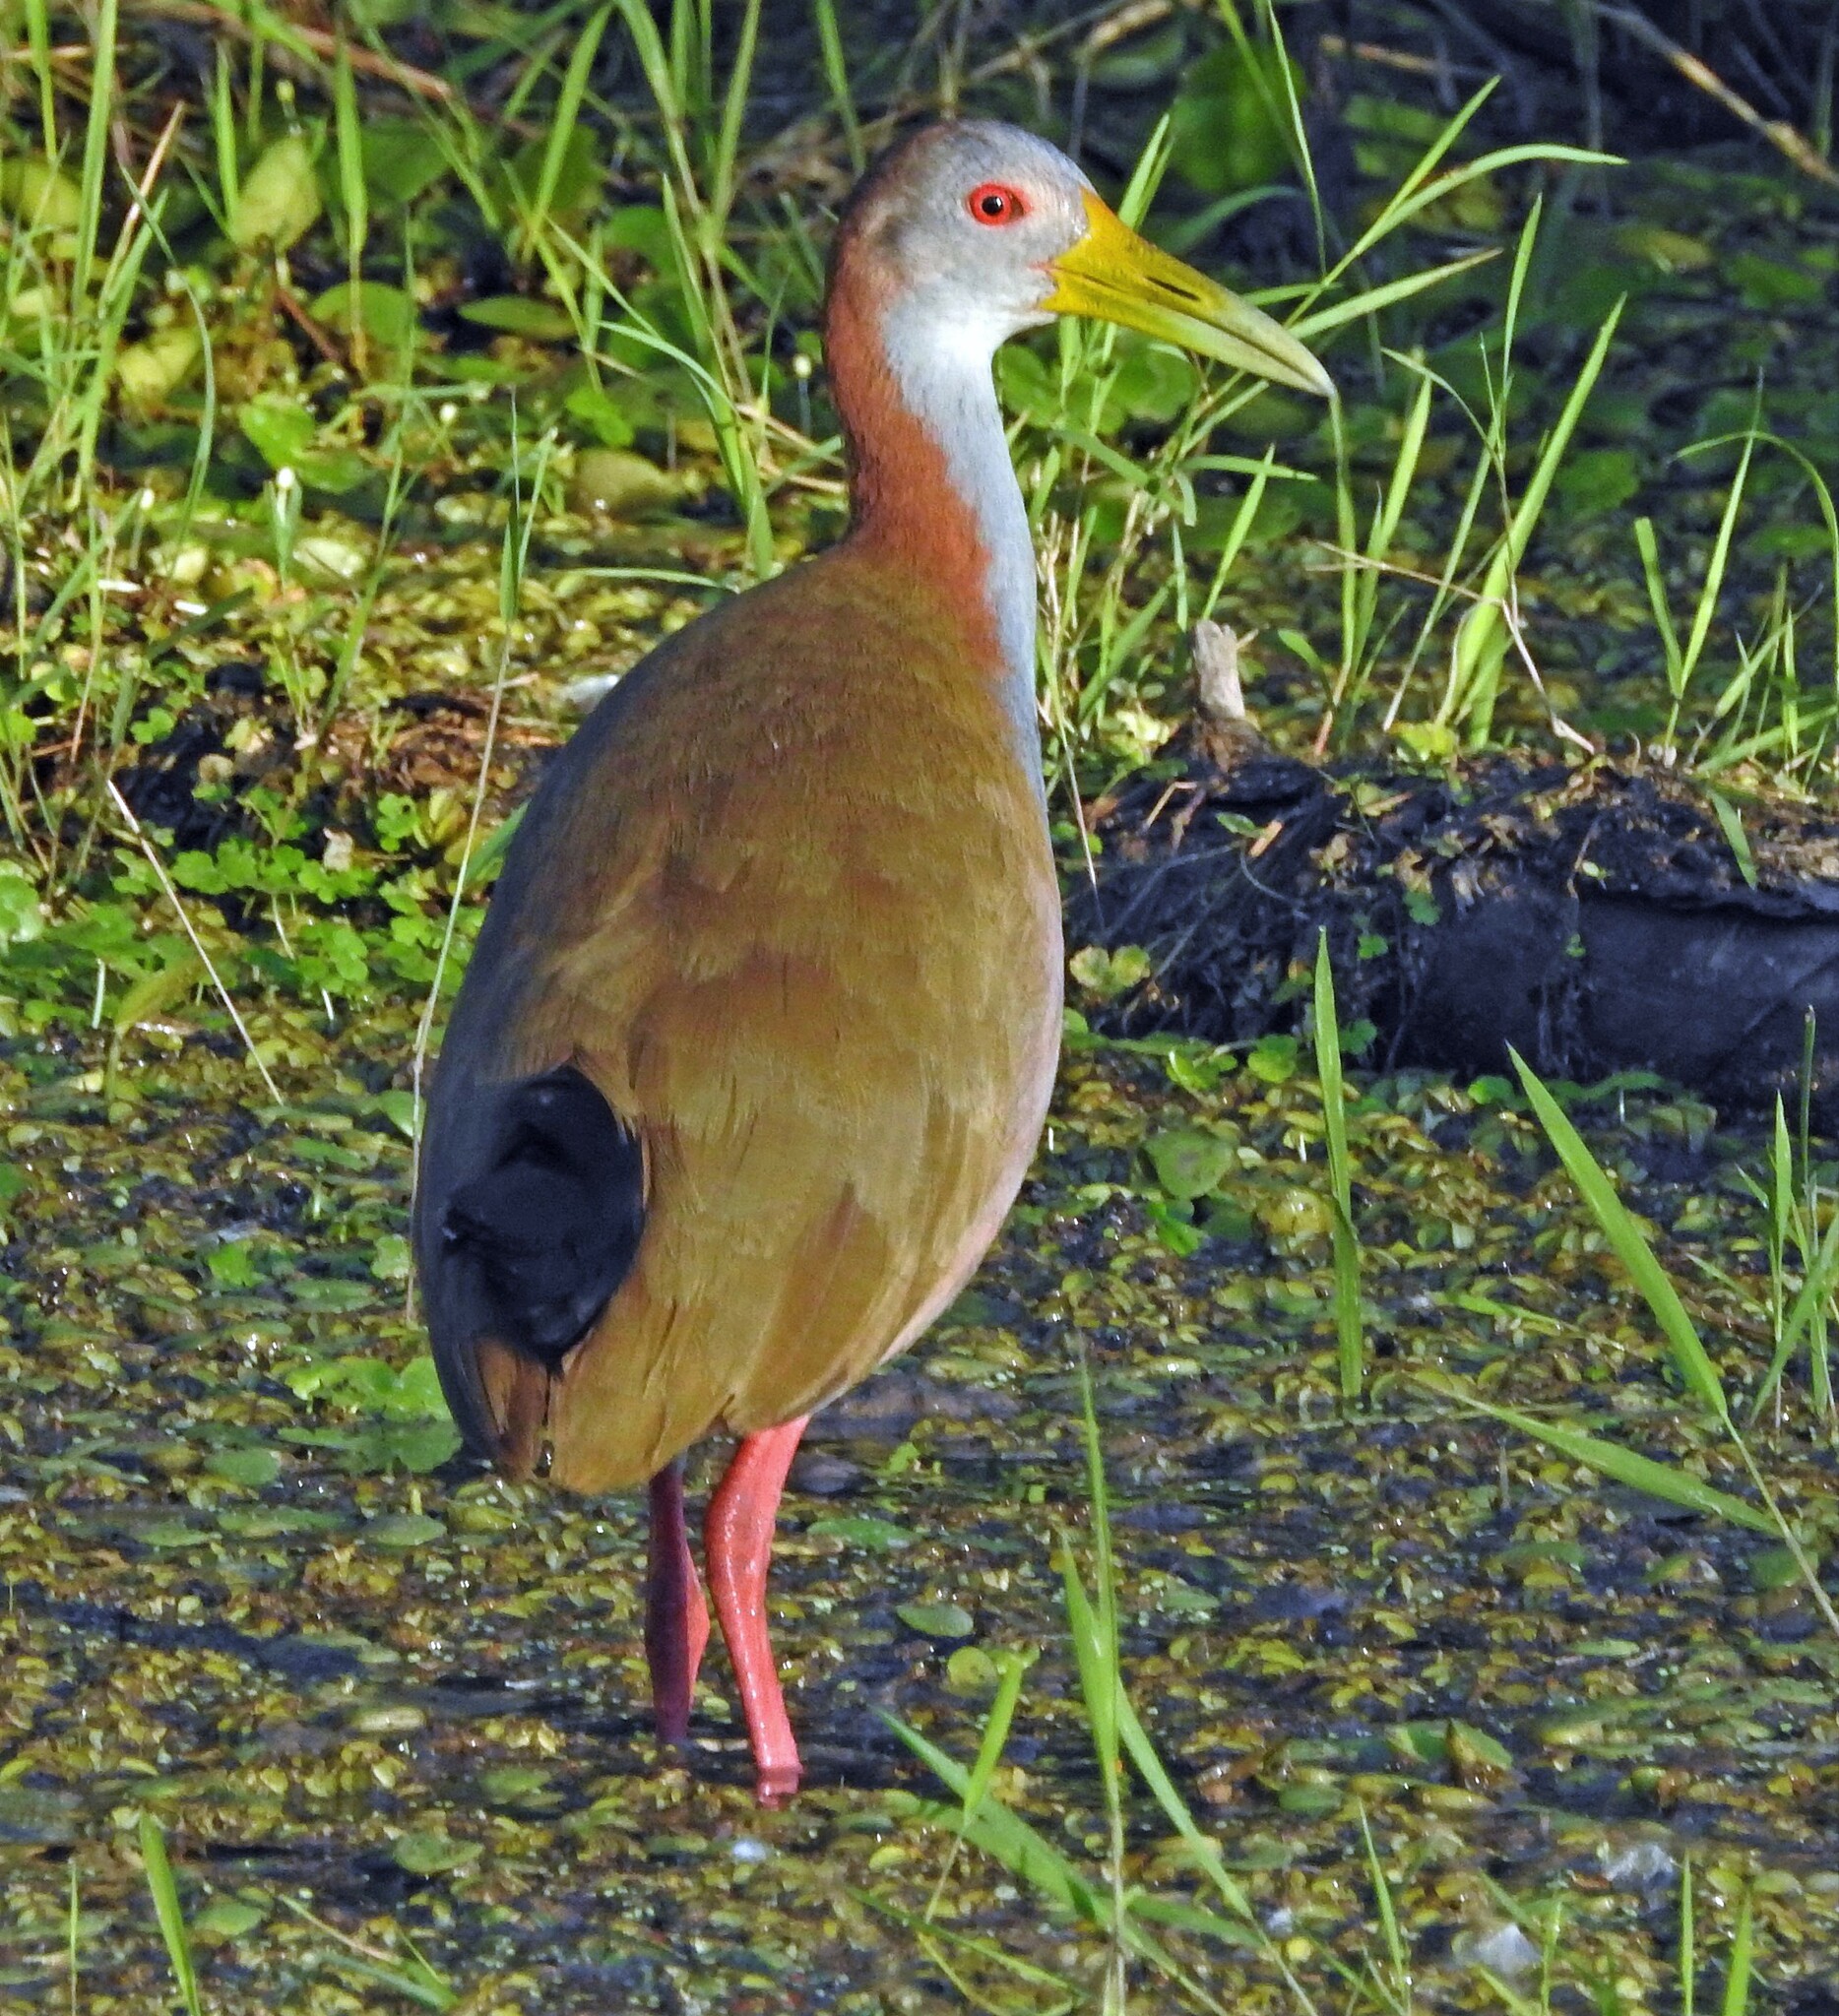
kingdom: Animalia
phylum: Chordata
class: Aves
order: Gruiformes
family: Rallidae
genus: Aramides
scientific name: Aramides ypecaha
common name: Giant wood rail
